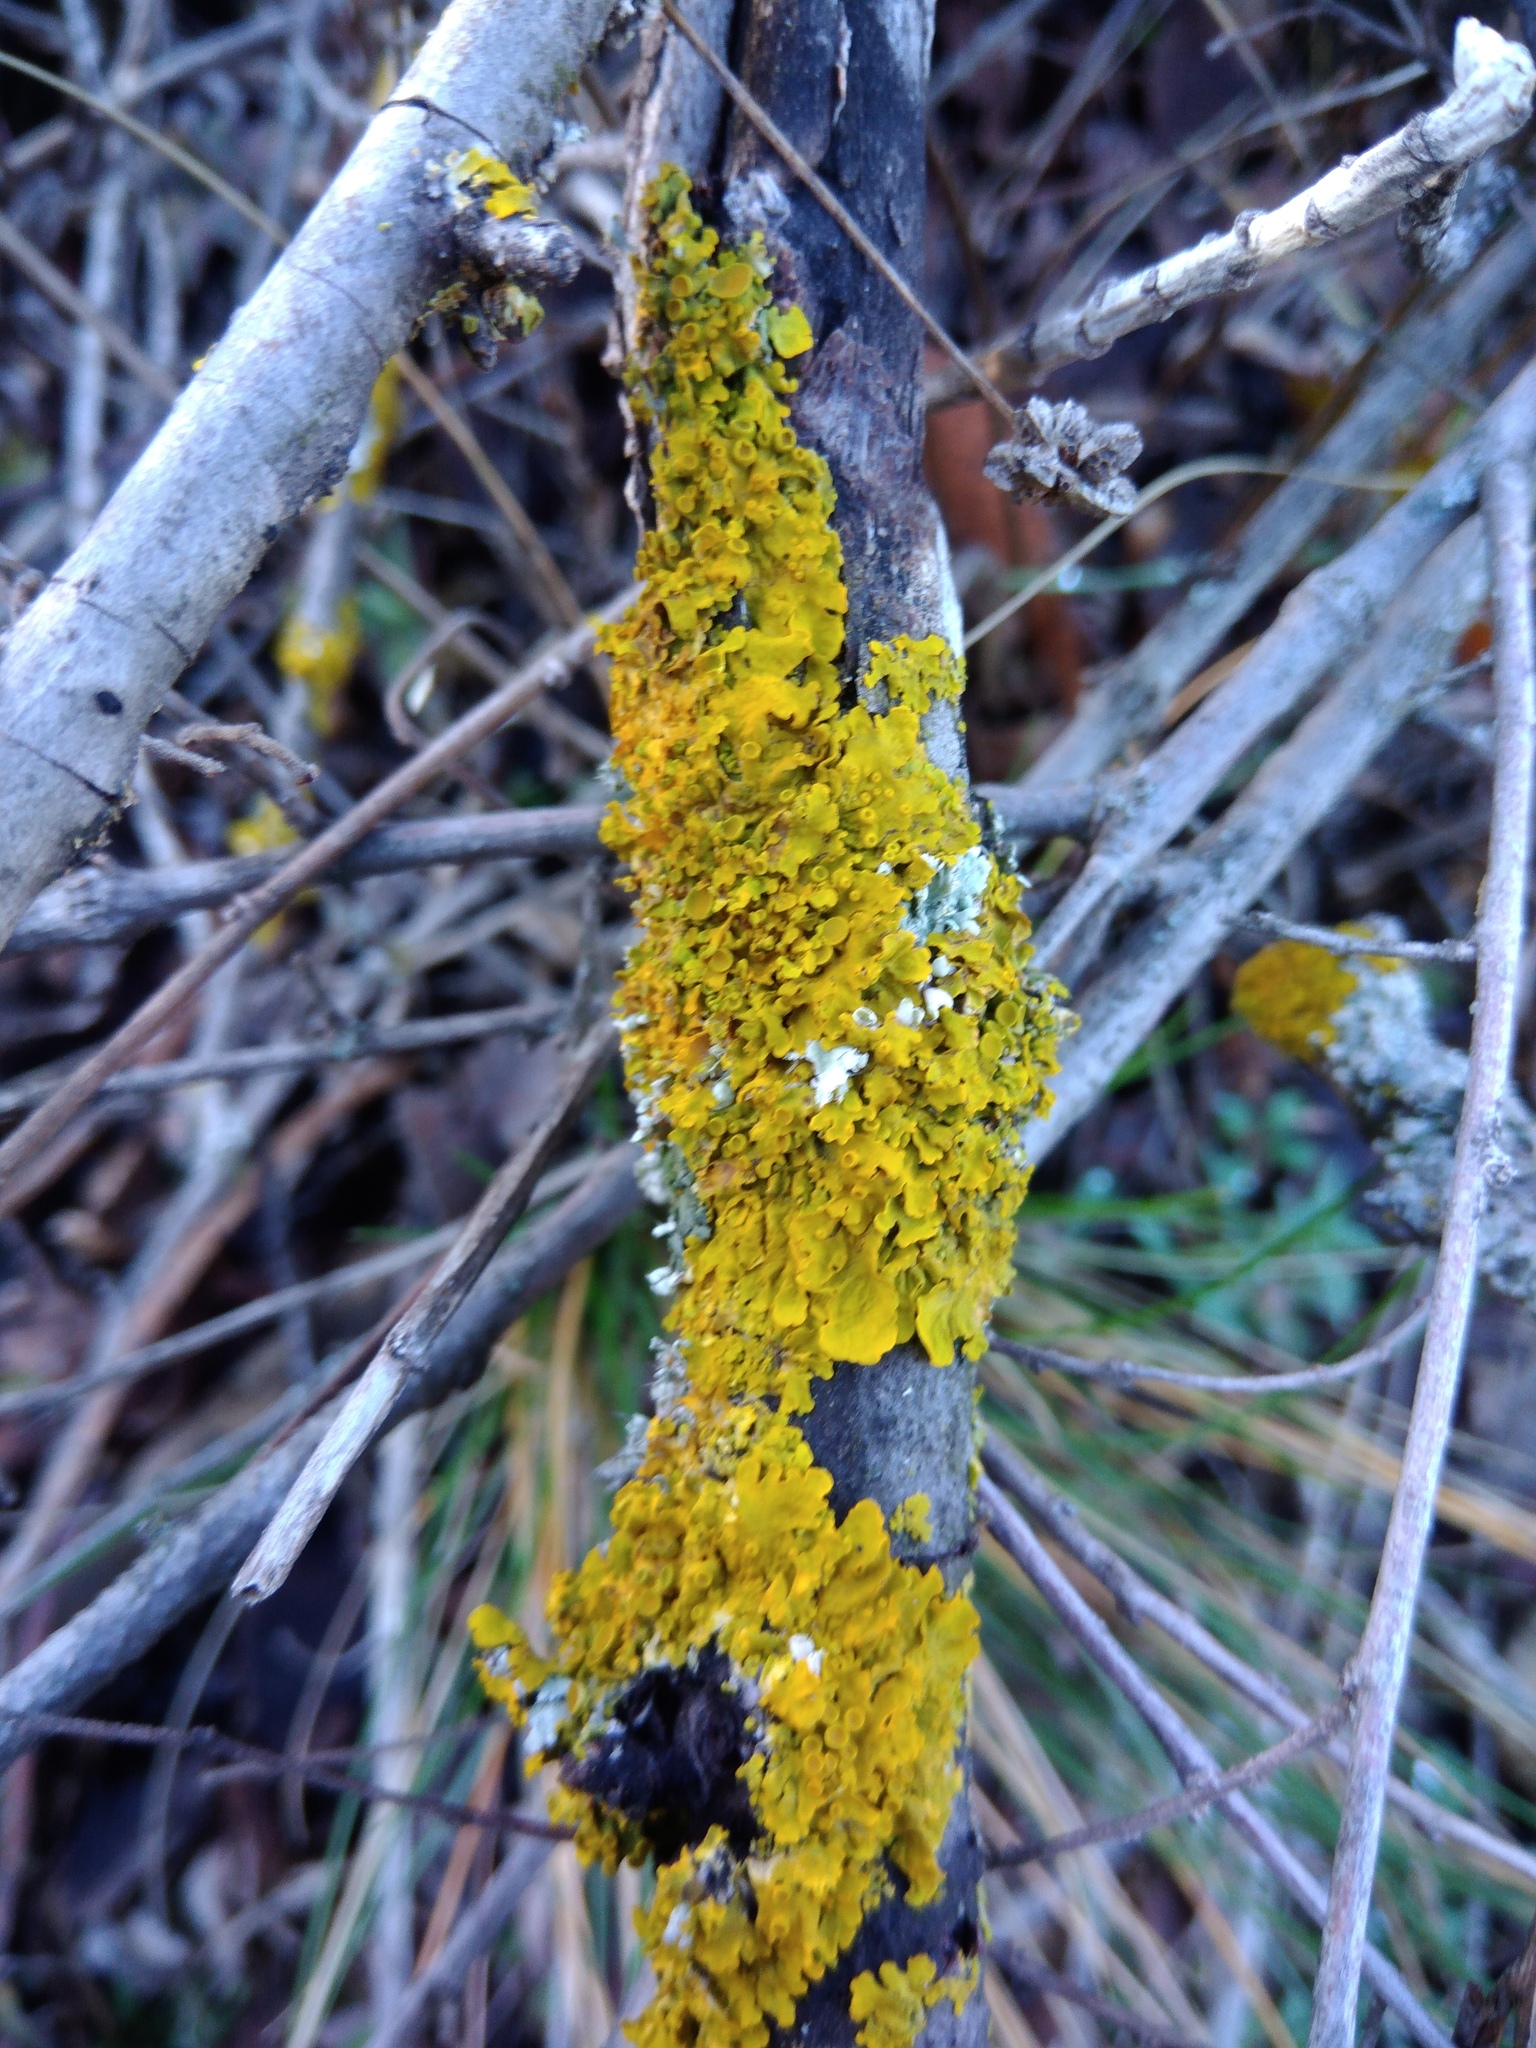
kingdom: Fungi
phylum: Ascomycota
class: Lecanoromycetes
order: Teloschistales
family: Teloschistaceae
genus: Xanthoria
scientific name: Xanthoria parietina
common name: Common orange lichen
